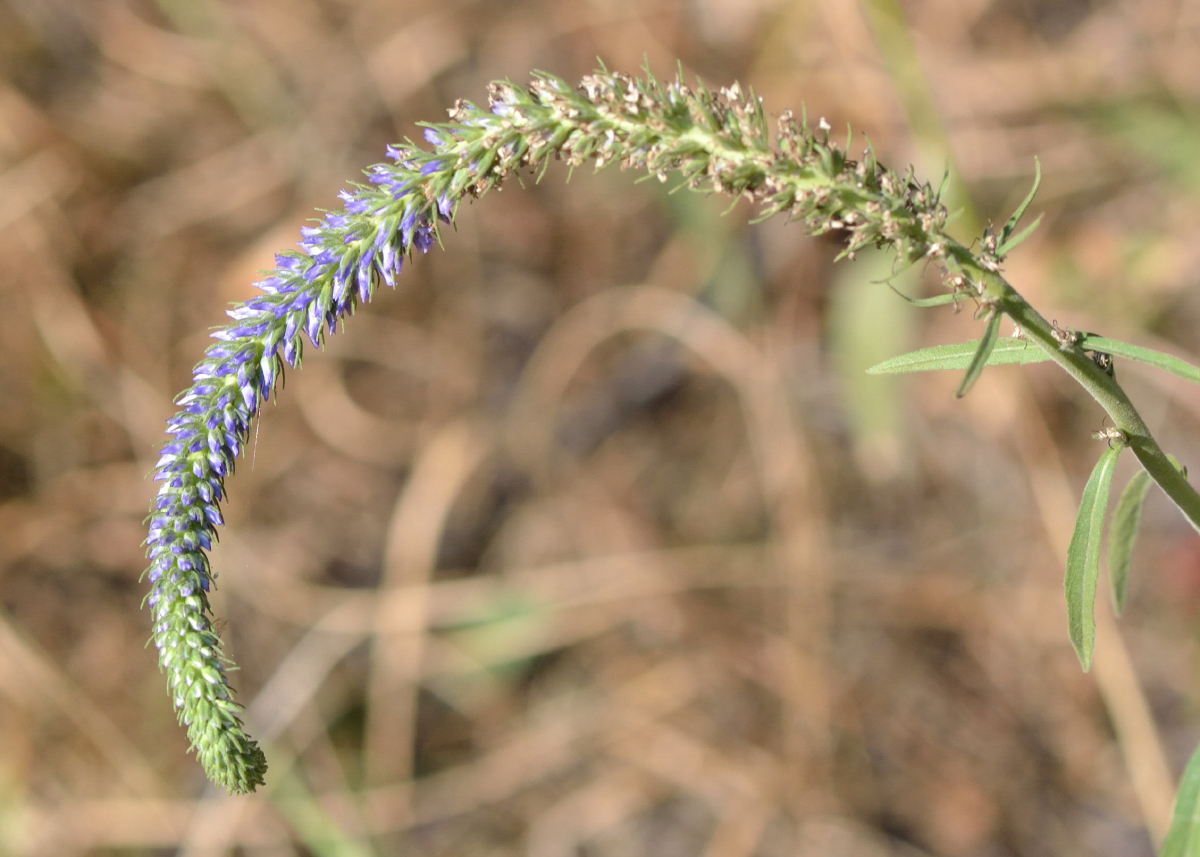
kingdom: Plantae
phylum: Tracheophyta
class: Magnoliopsida
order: Lamiales
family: Plantaginaceae
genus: Veronica
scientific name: Veronica spicata
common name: Spiked speedwell
